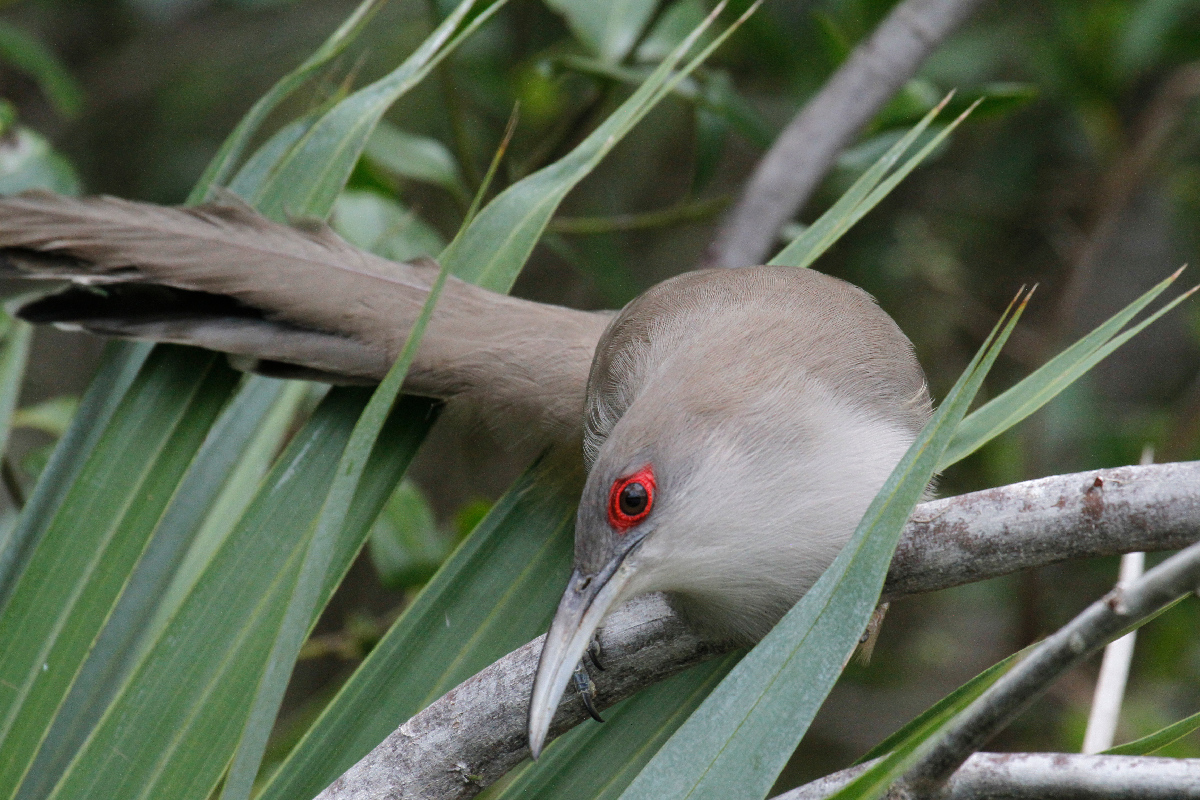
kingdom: Animalia
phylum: Chordata
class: Aves
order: Cuculiformes
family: Cuculidae
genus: Saurothera
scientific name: Saurothera merlini
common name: Great lizard-cuckoo
